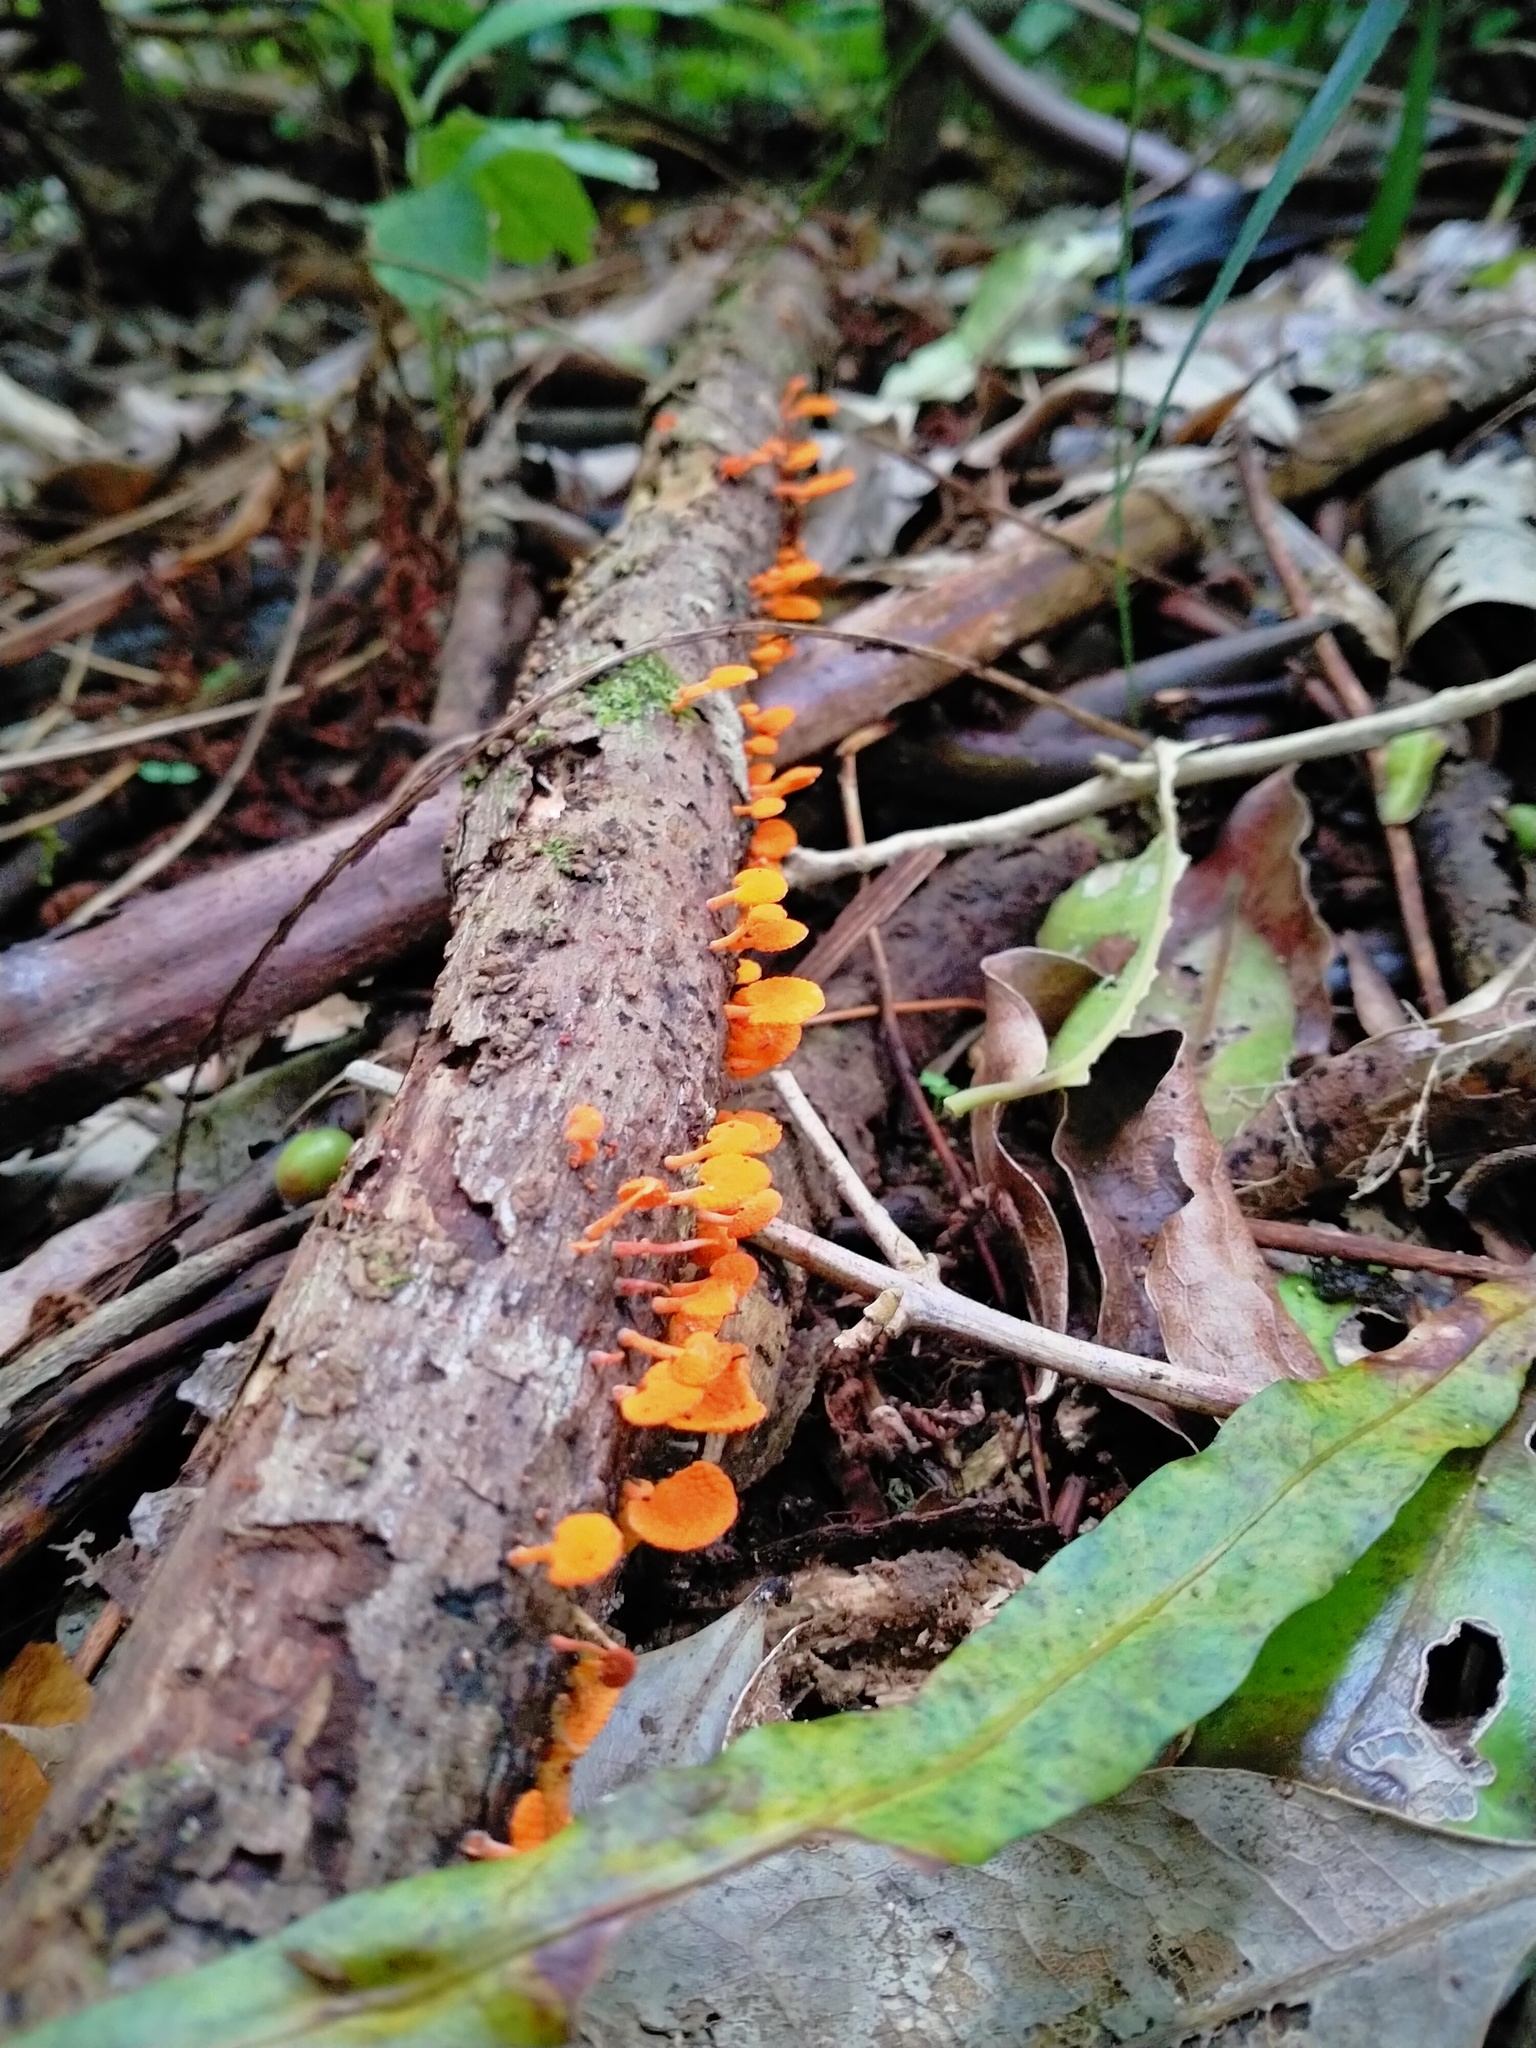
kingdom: Fungi
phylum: Basidiomycota
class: Agaricomycetes
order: Agaricales
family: Mycenaceae
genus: Favolaschia
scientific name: Favolaschia claudopus
